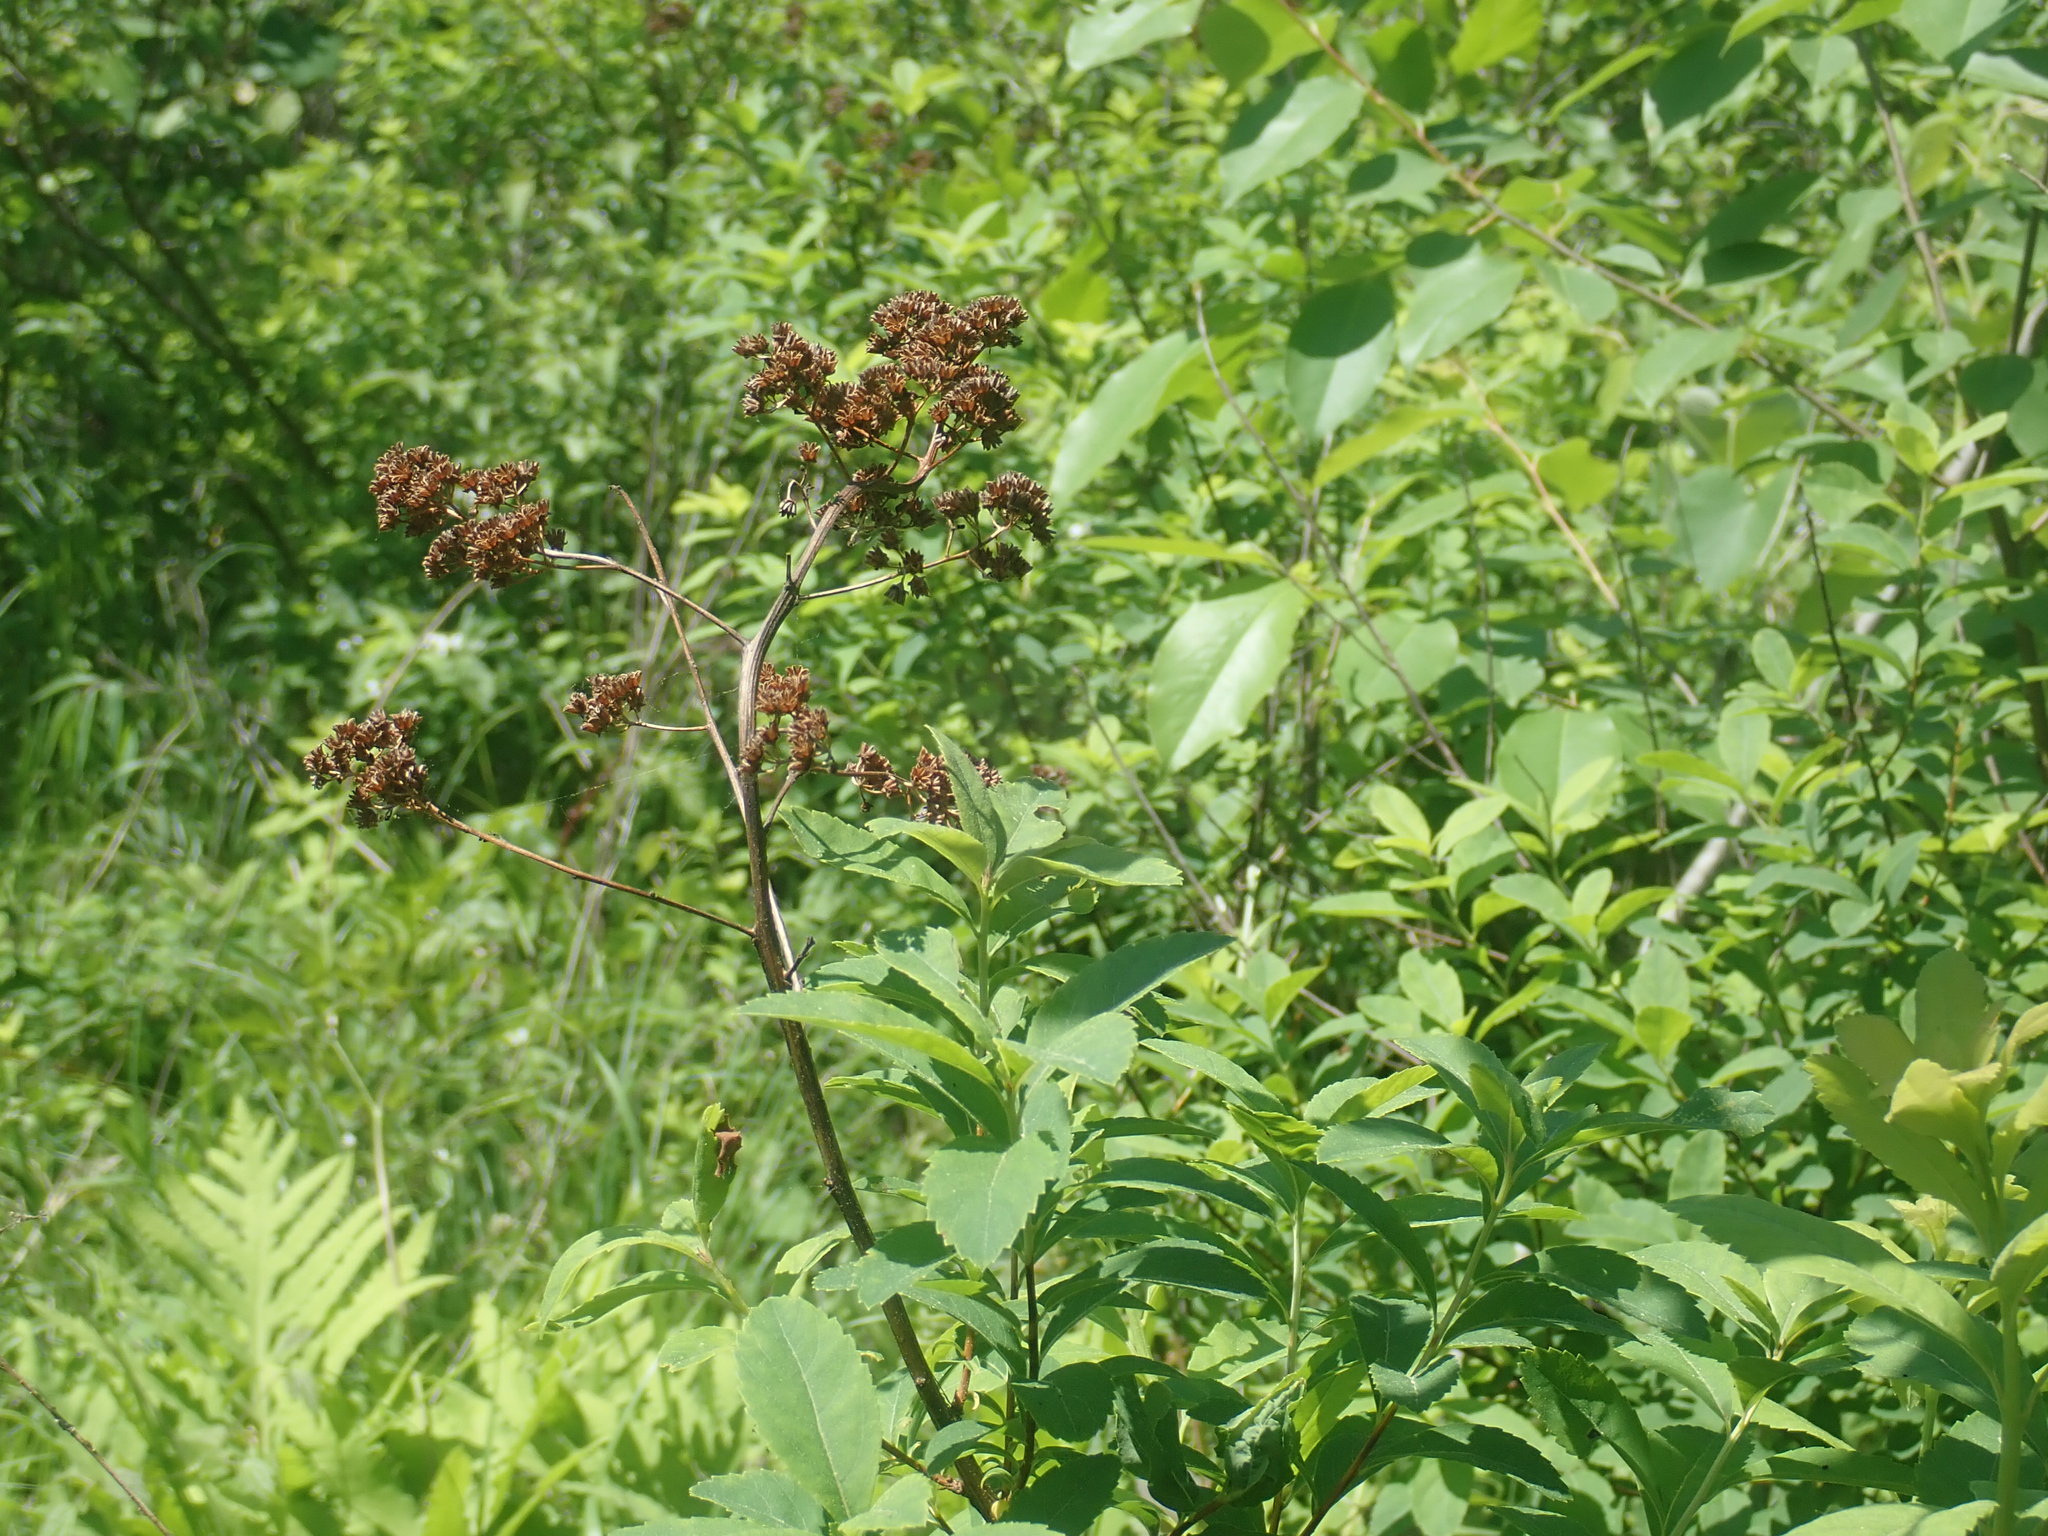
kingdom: Plantae
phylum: Tracheophyta
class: Magnoliopsida
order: Rosales
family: Rosaceae
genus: Spiraea
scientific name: Spiraea alba
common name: Pale bridewort
